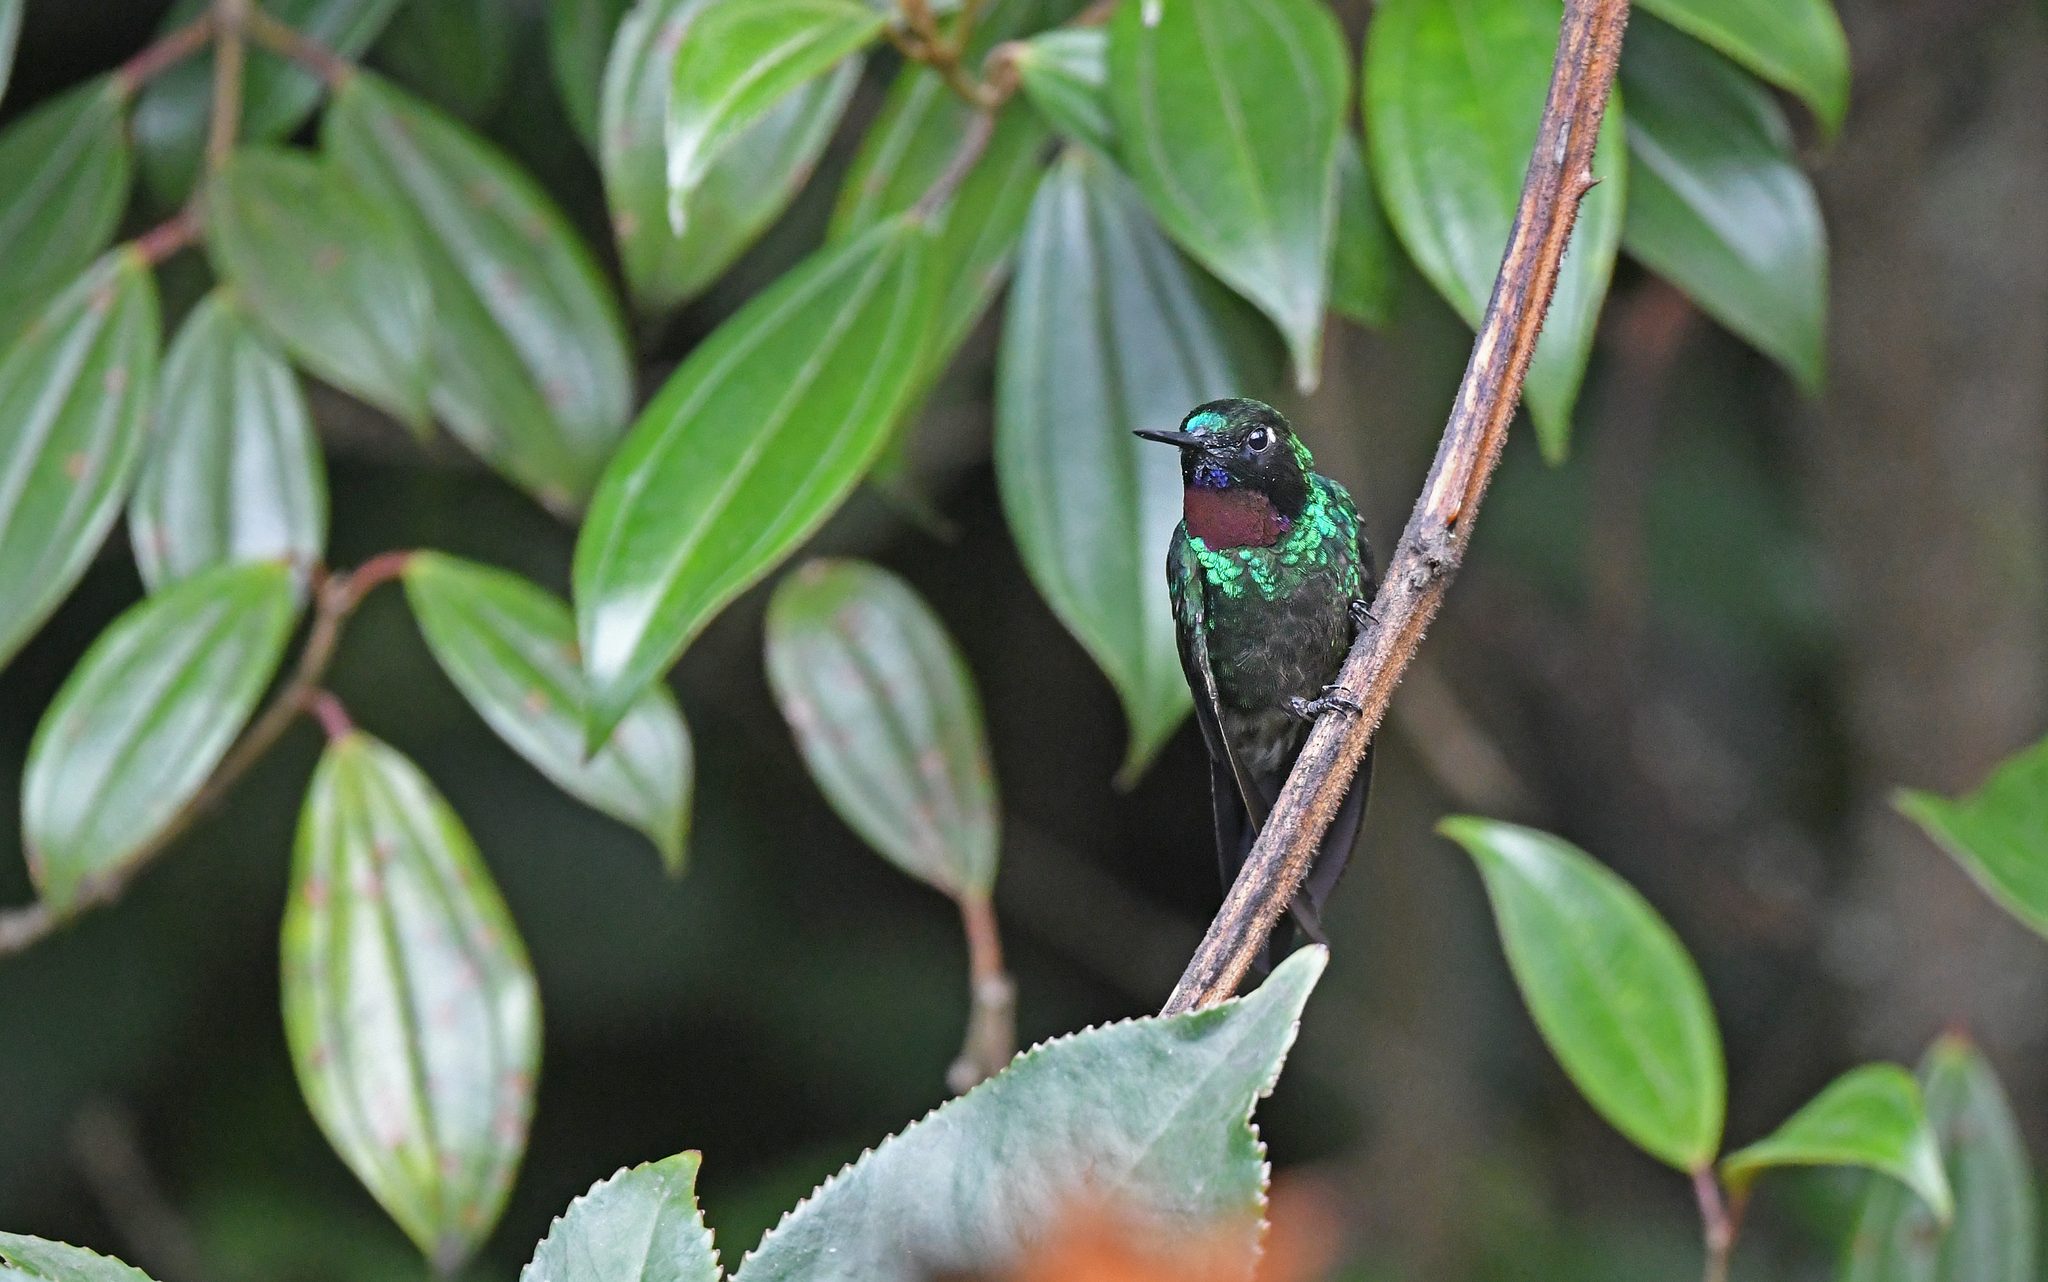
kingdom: Animalia
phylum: Chordata
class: Aves
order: Apodiformes
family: Trochilidae
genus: Heliangelus
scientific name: Heliangelus exortis
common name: Tourmaline sunangel
